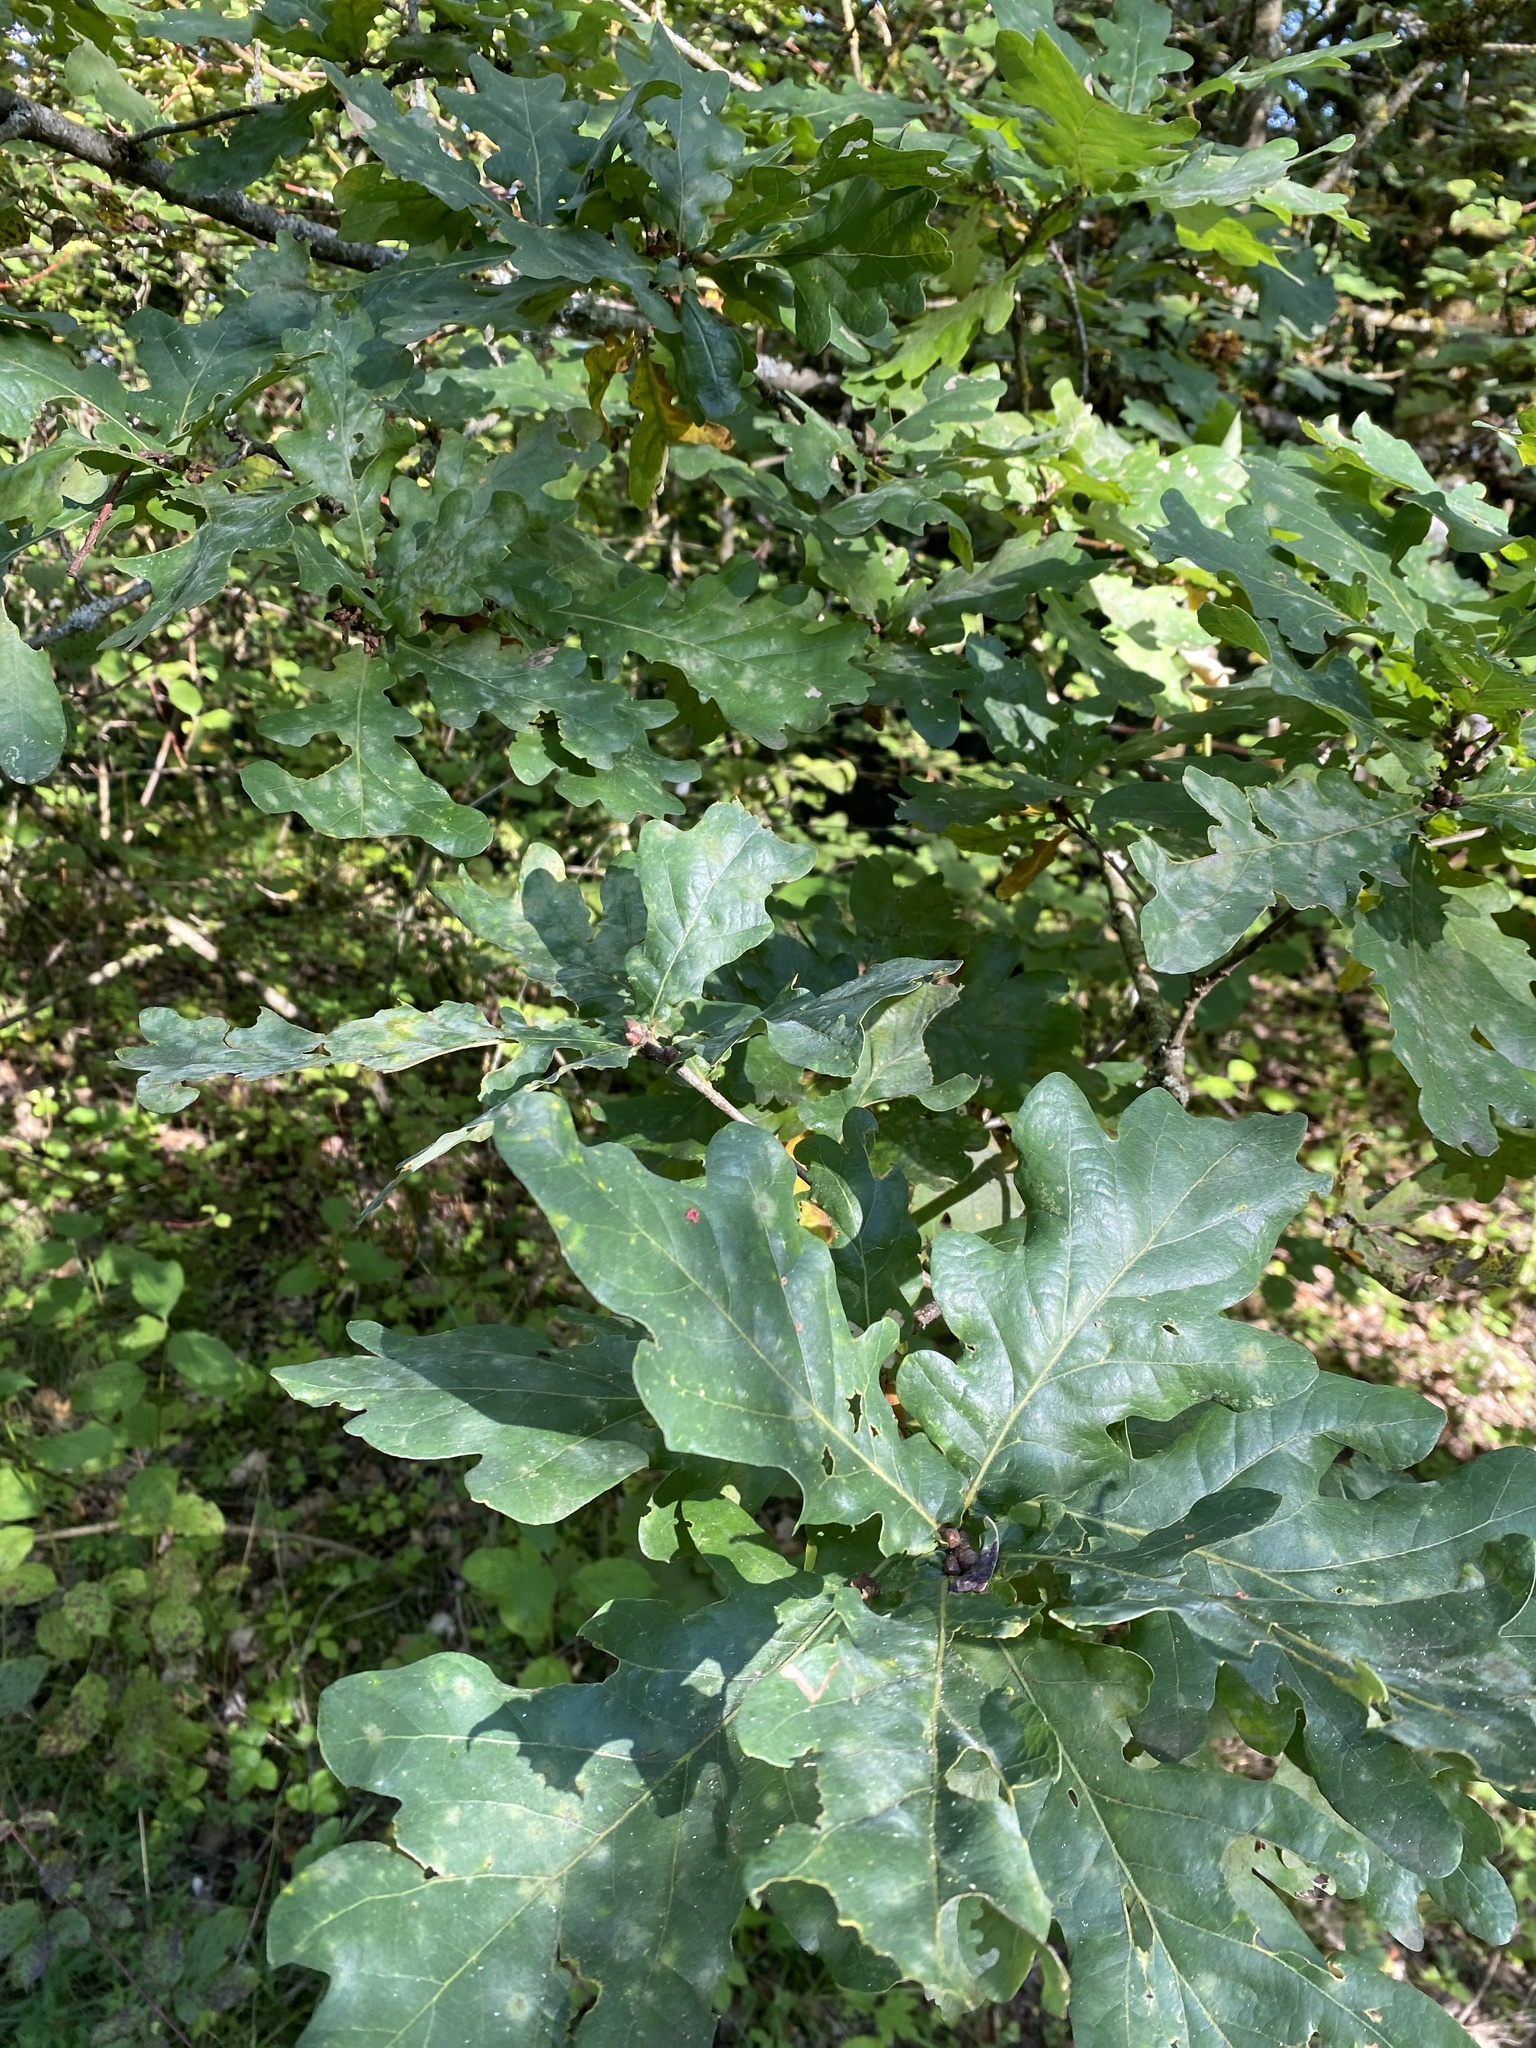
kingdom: Plantae
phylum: Tracheophyta
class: Magnoliopsida
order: Fagales
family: Fagaceae
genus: Quercus
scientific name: Quercus robur
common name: Pedunculate oak
